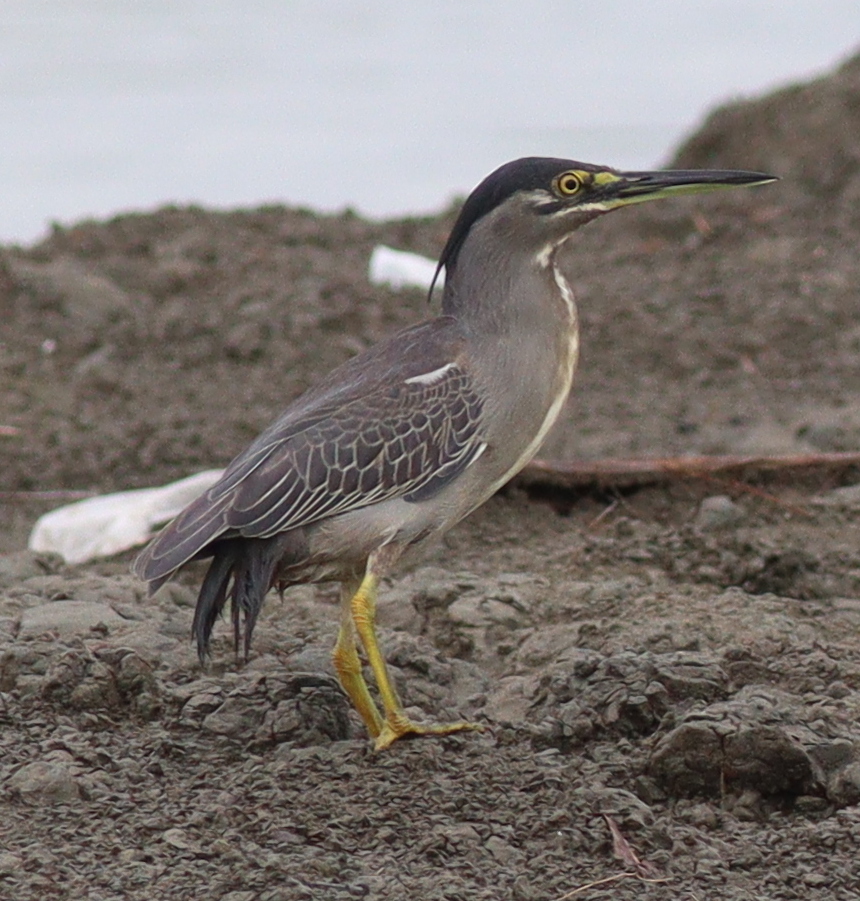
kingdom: Animalia
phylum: Chordata
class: Aves
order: Pelecaniformes
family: Ardeidae
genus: Butorides
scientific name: Butorides striata
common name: Striated heron
